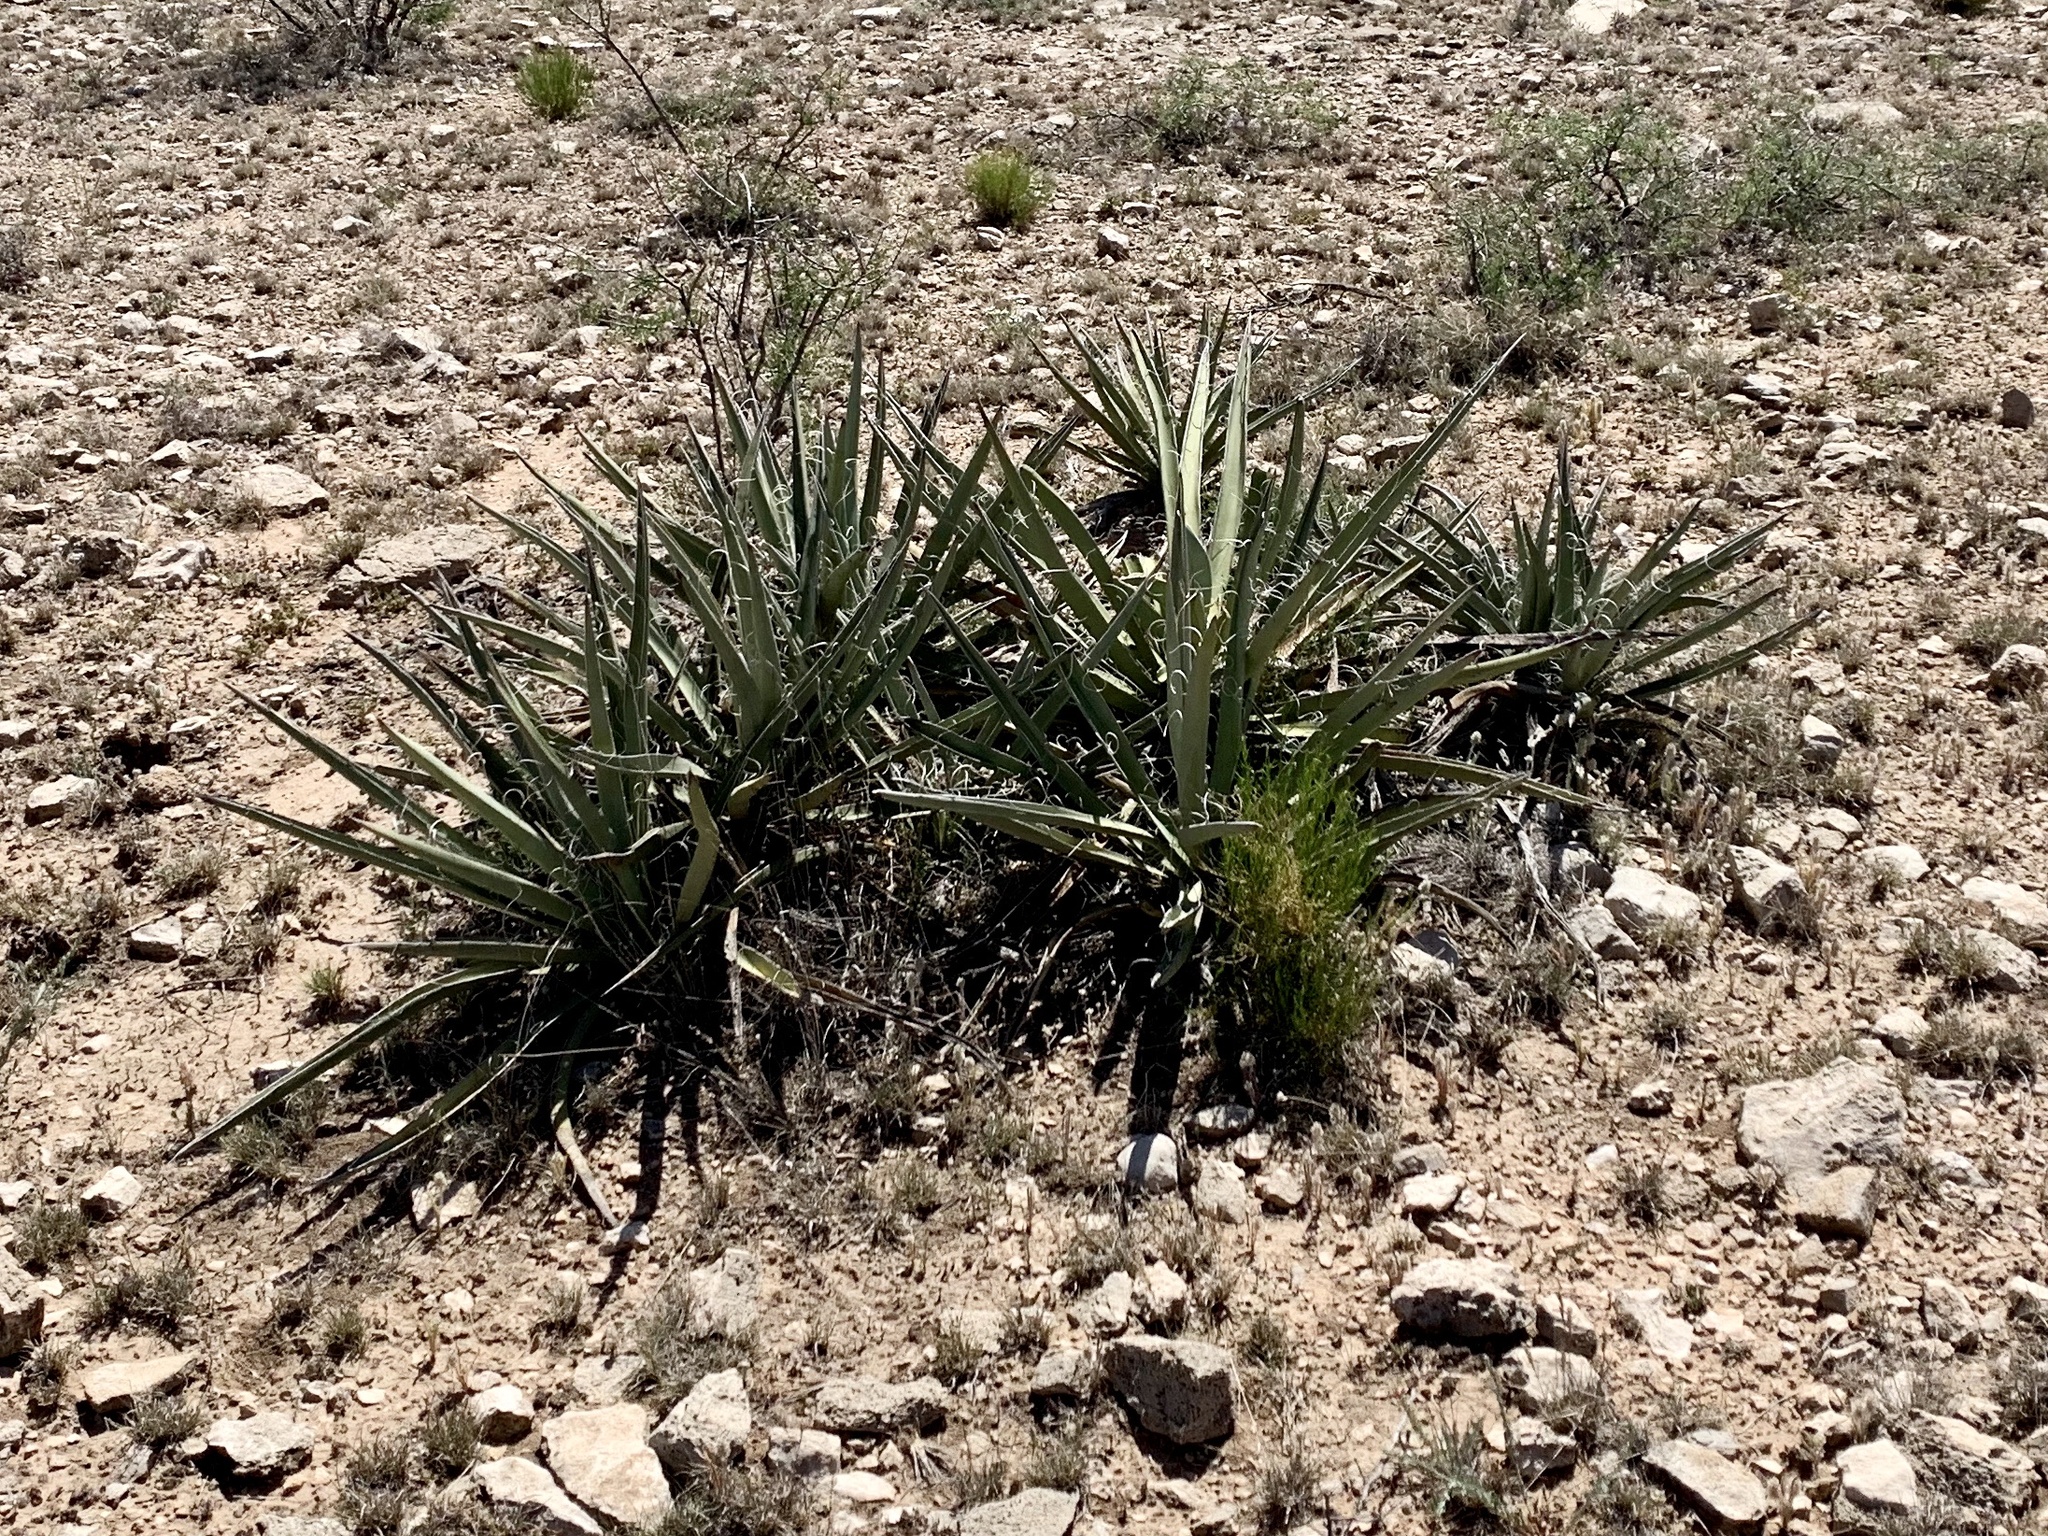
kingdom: Plantae
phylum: Tracheophyta
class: Liliopsida
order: Asparagales
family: Asparagaceae
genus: Yucca
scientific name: Yucca baccata
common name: Banana yucca
